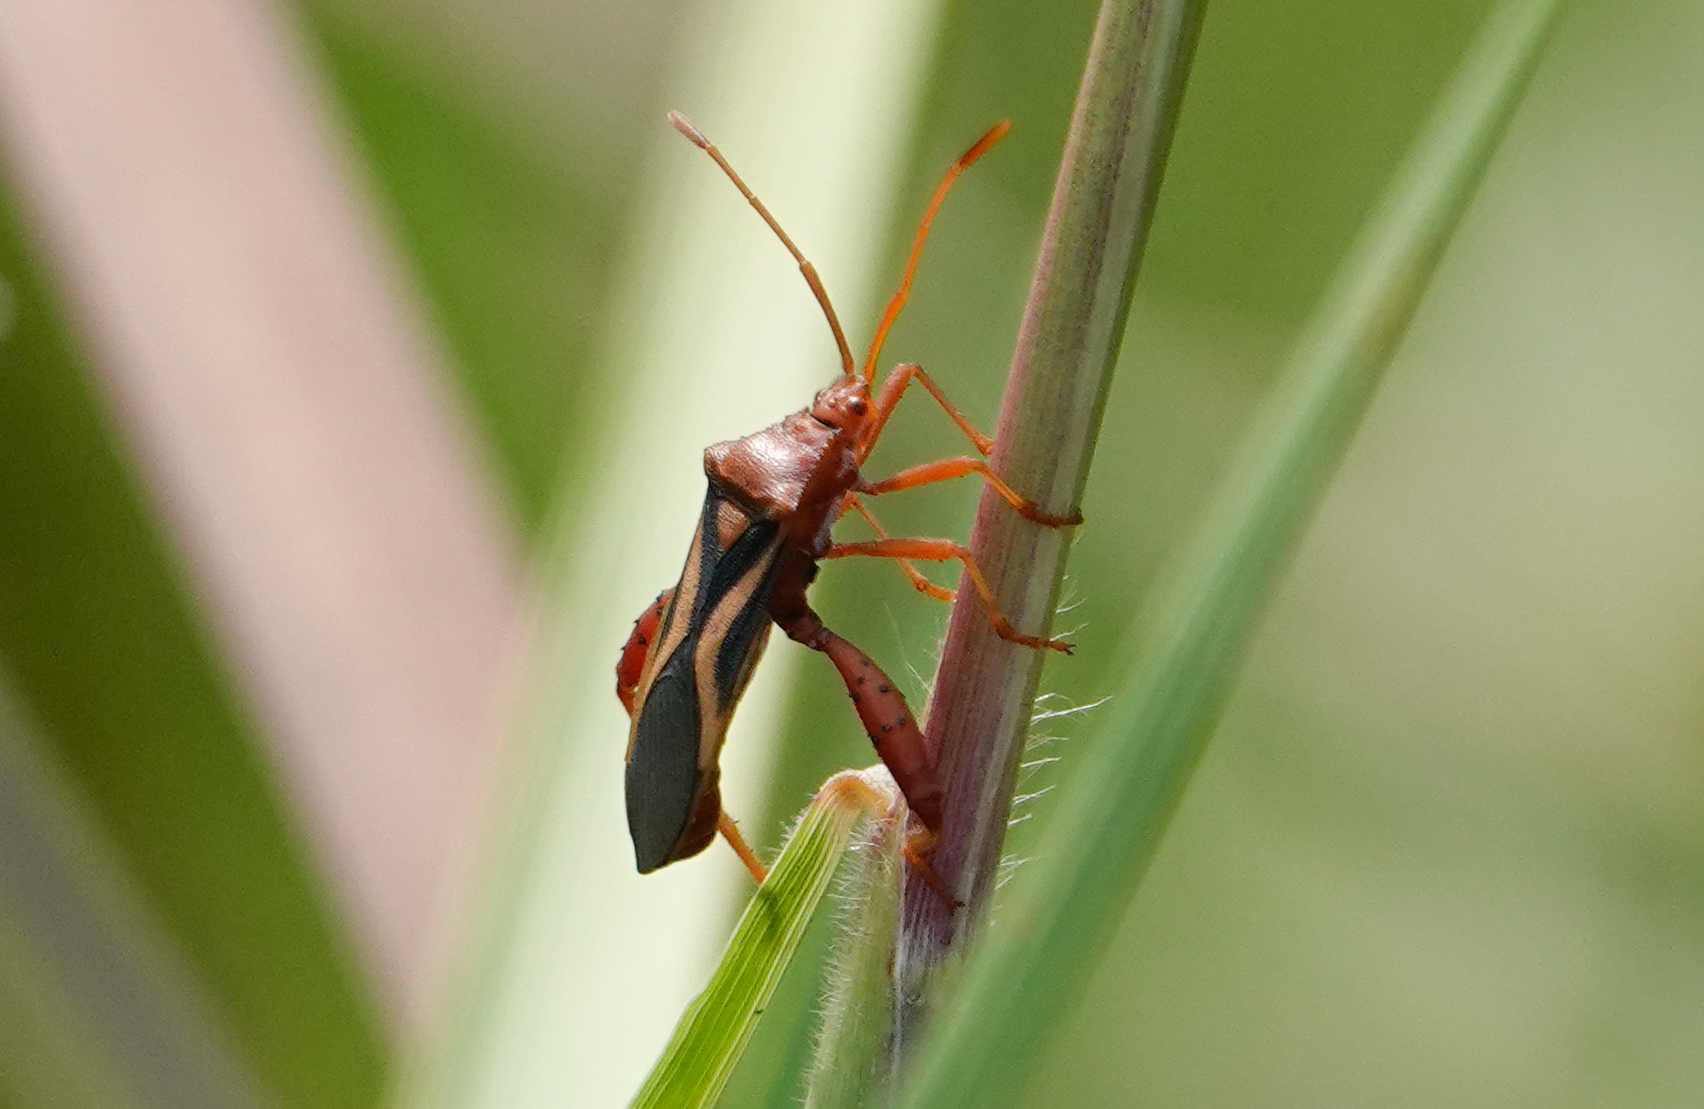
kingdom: Animalia
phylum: Arthropoda
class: Insecta
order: Hemiptera
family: Coreidae
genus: Crinocerus
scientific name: Crinocerus sanctus
